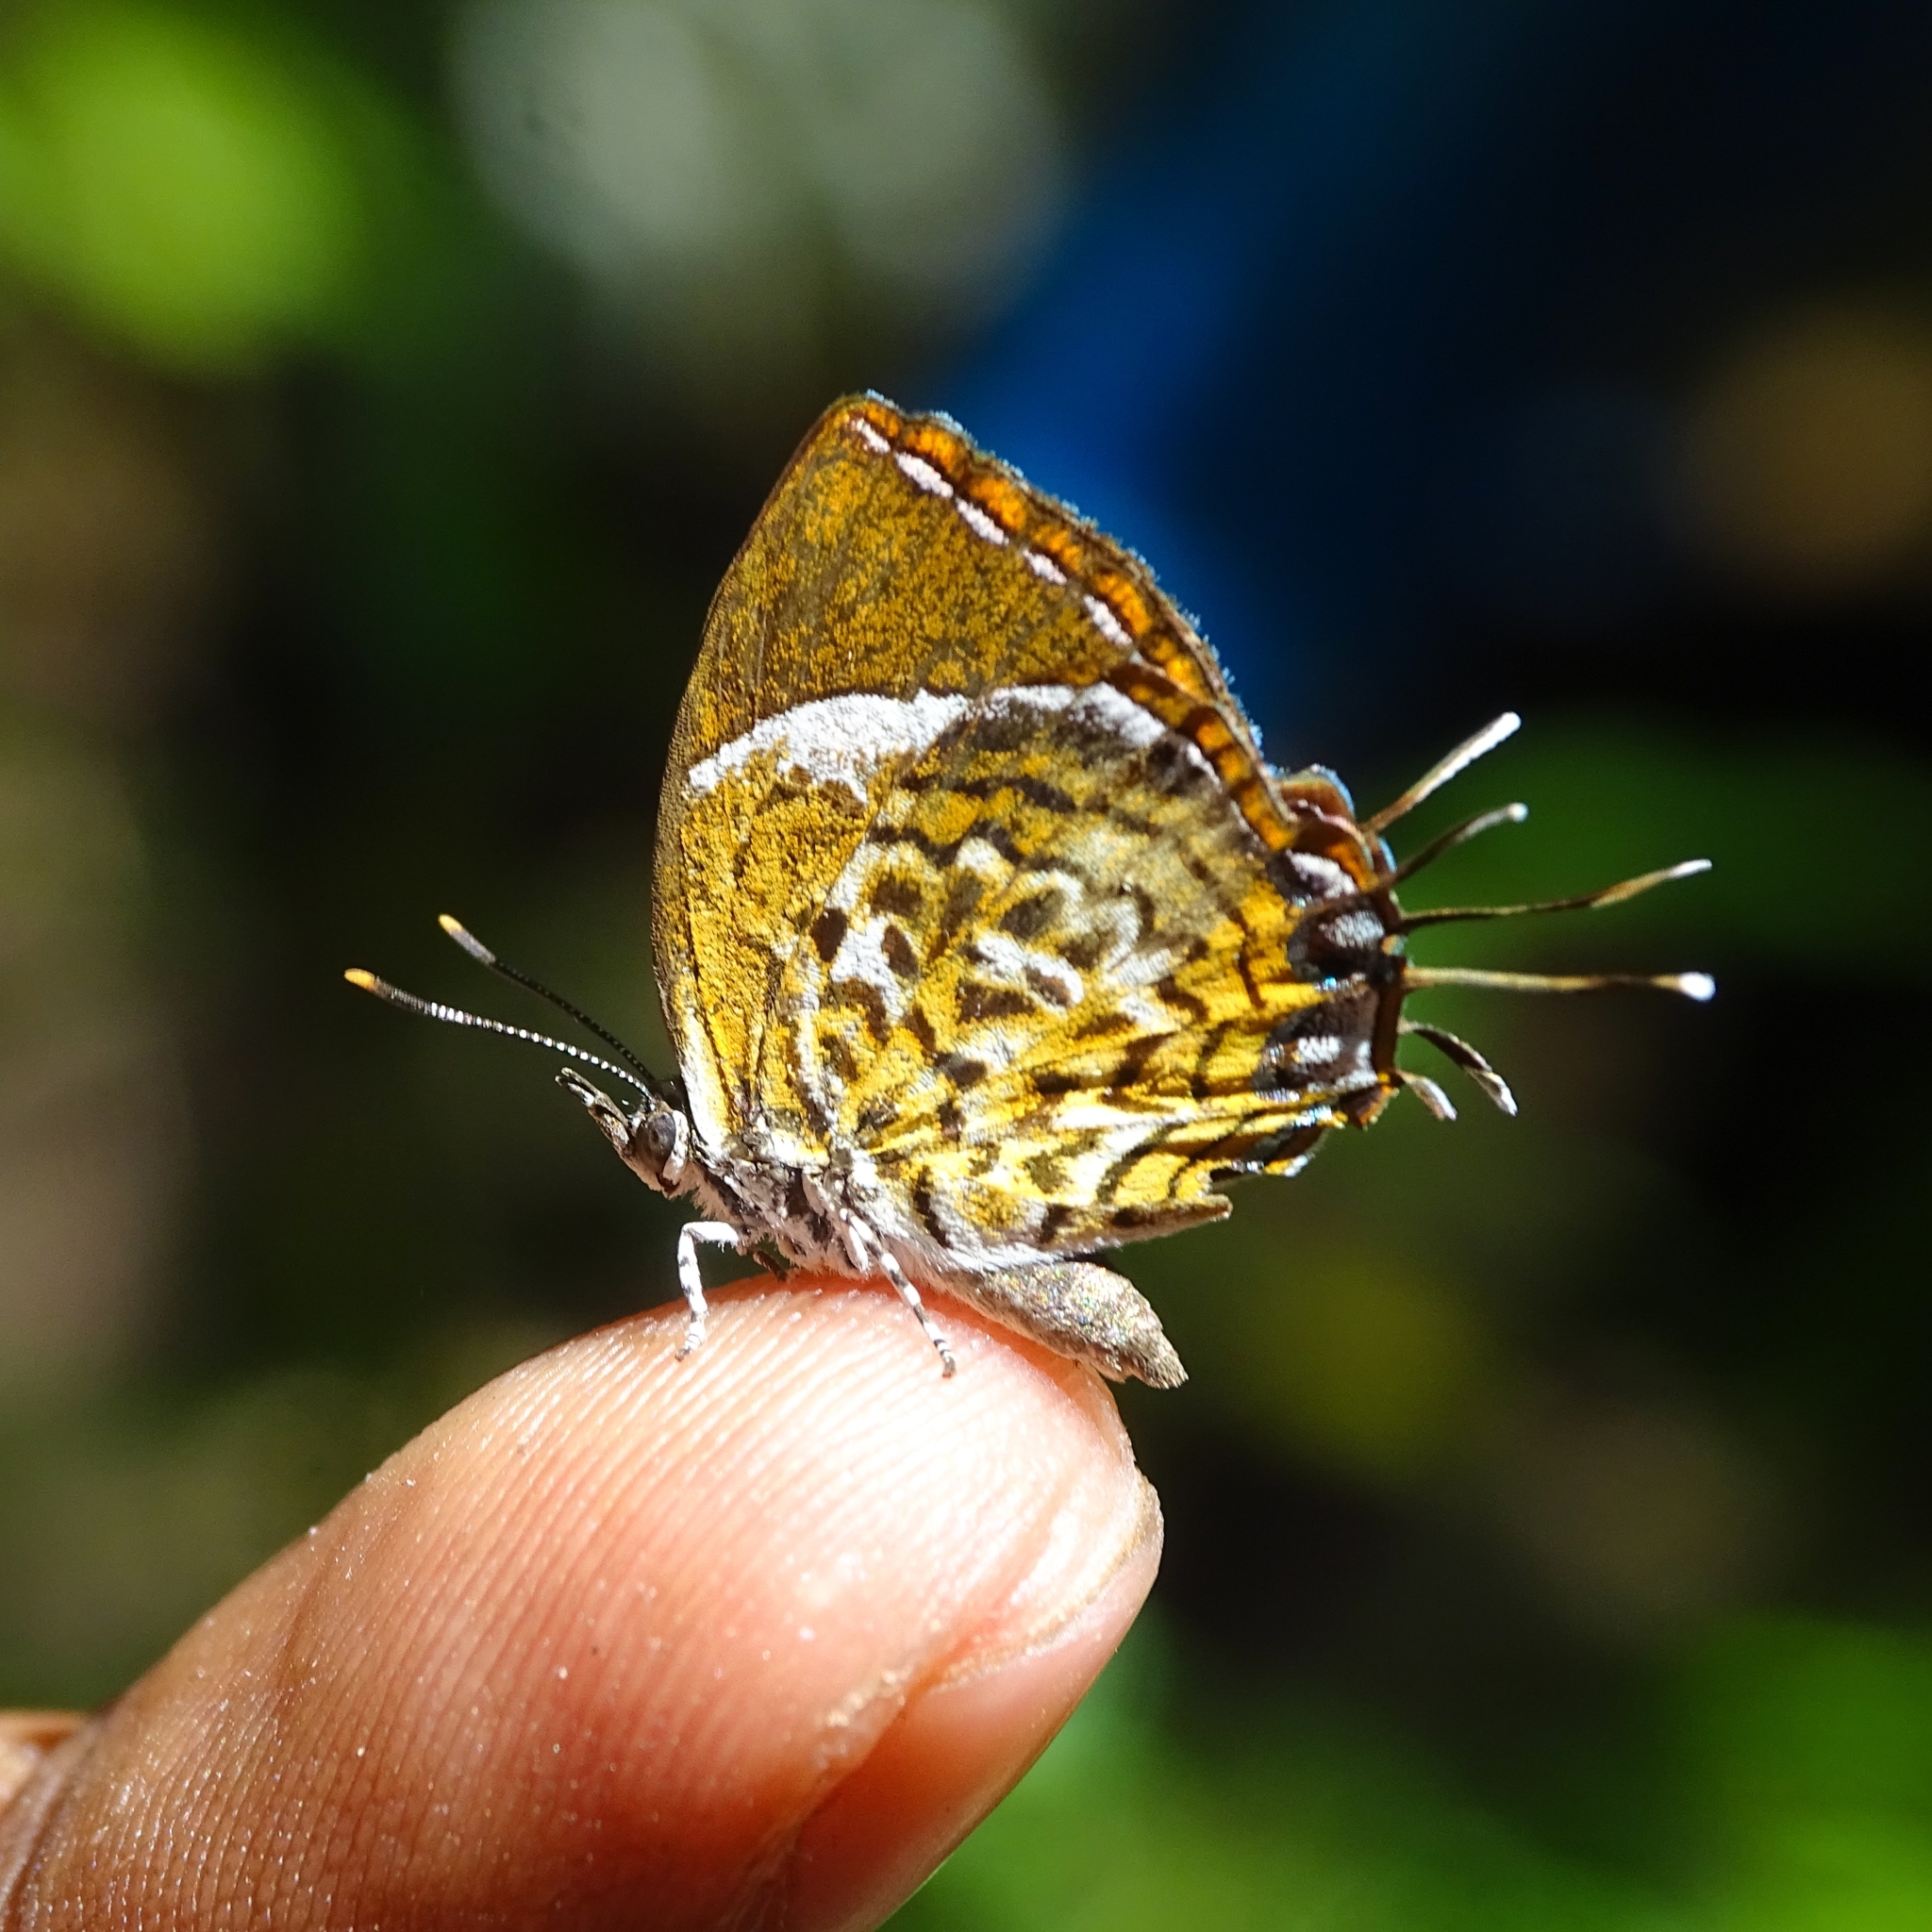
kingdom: Animalia
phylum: Arthropoda
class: Insecta
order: Lepidoptera
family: Lycaenidae
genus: Rathinda
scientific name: Rathinda amor
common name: Monkey puzzle
